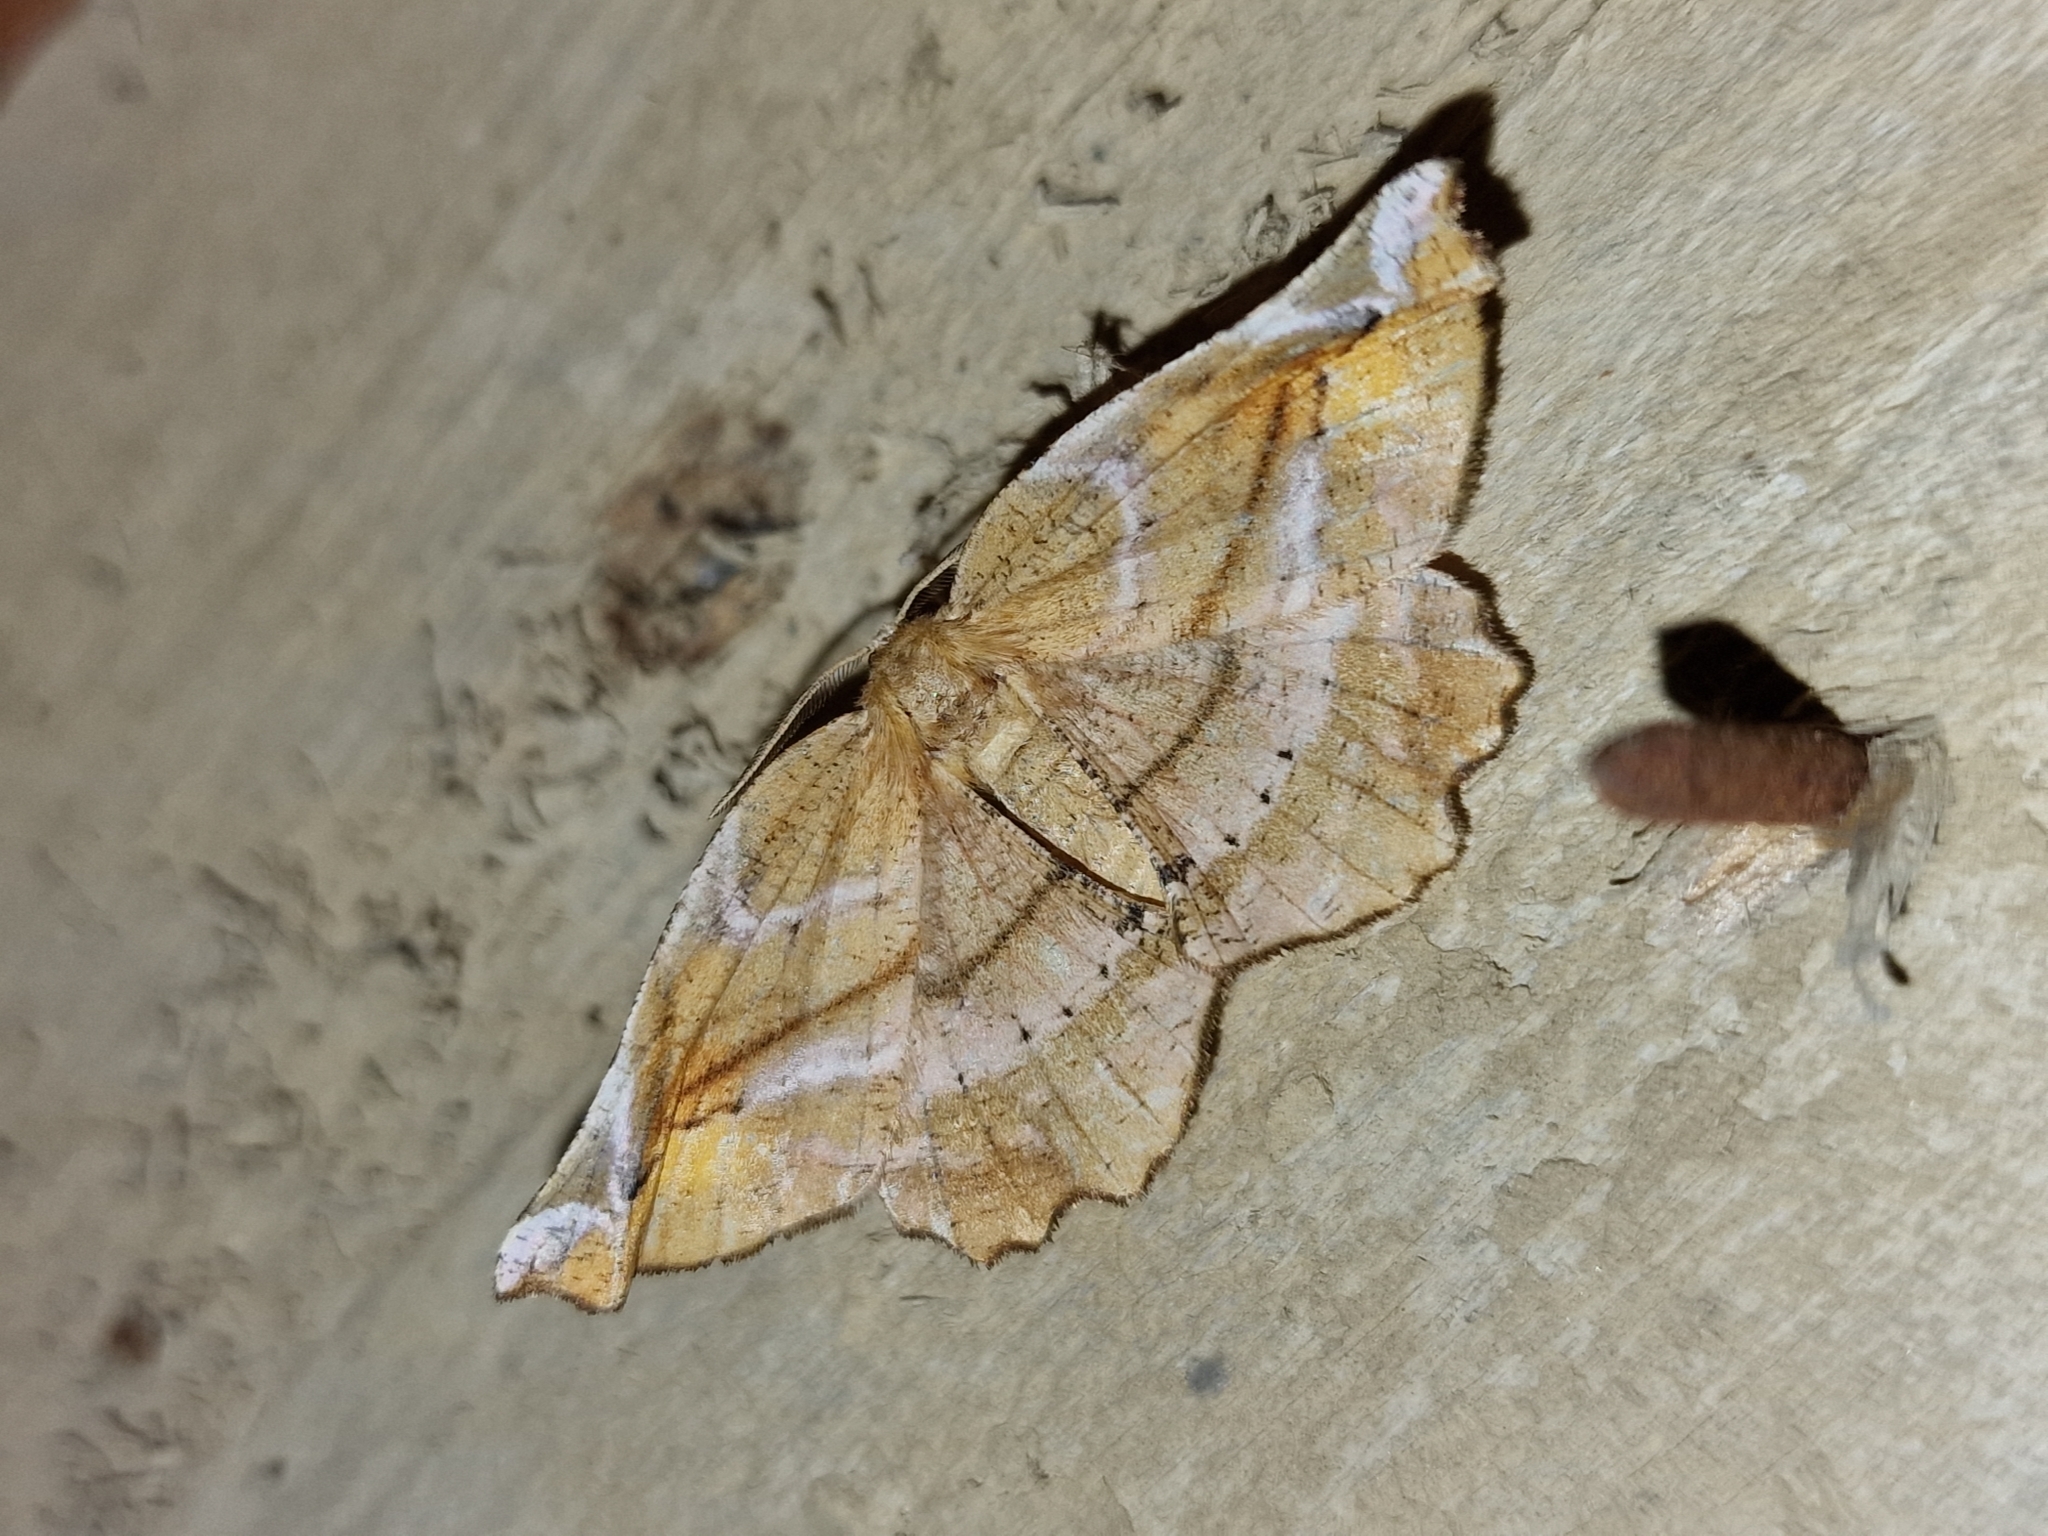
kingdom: Animalia
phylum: Arthropoda
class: Insecta
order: Lepidoptera
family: Geometridae
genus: Apeira
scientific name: Apeira syringaria
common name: Lilac beauty
